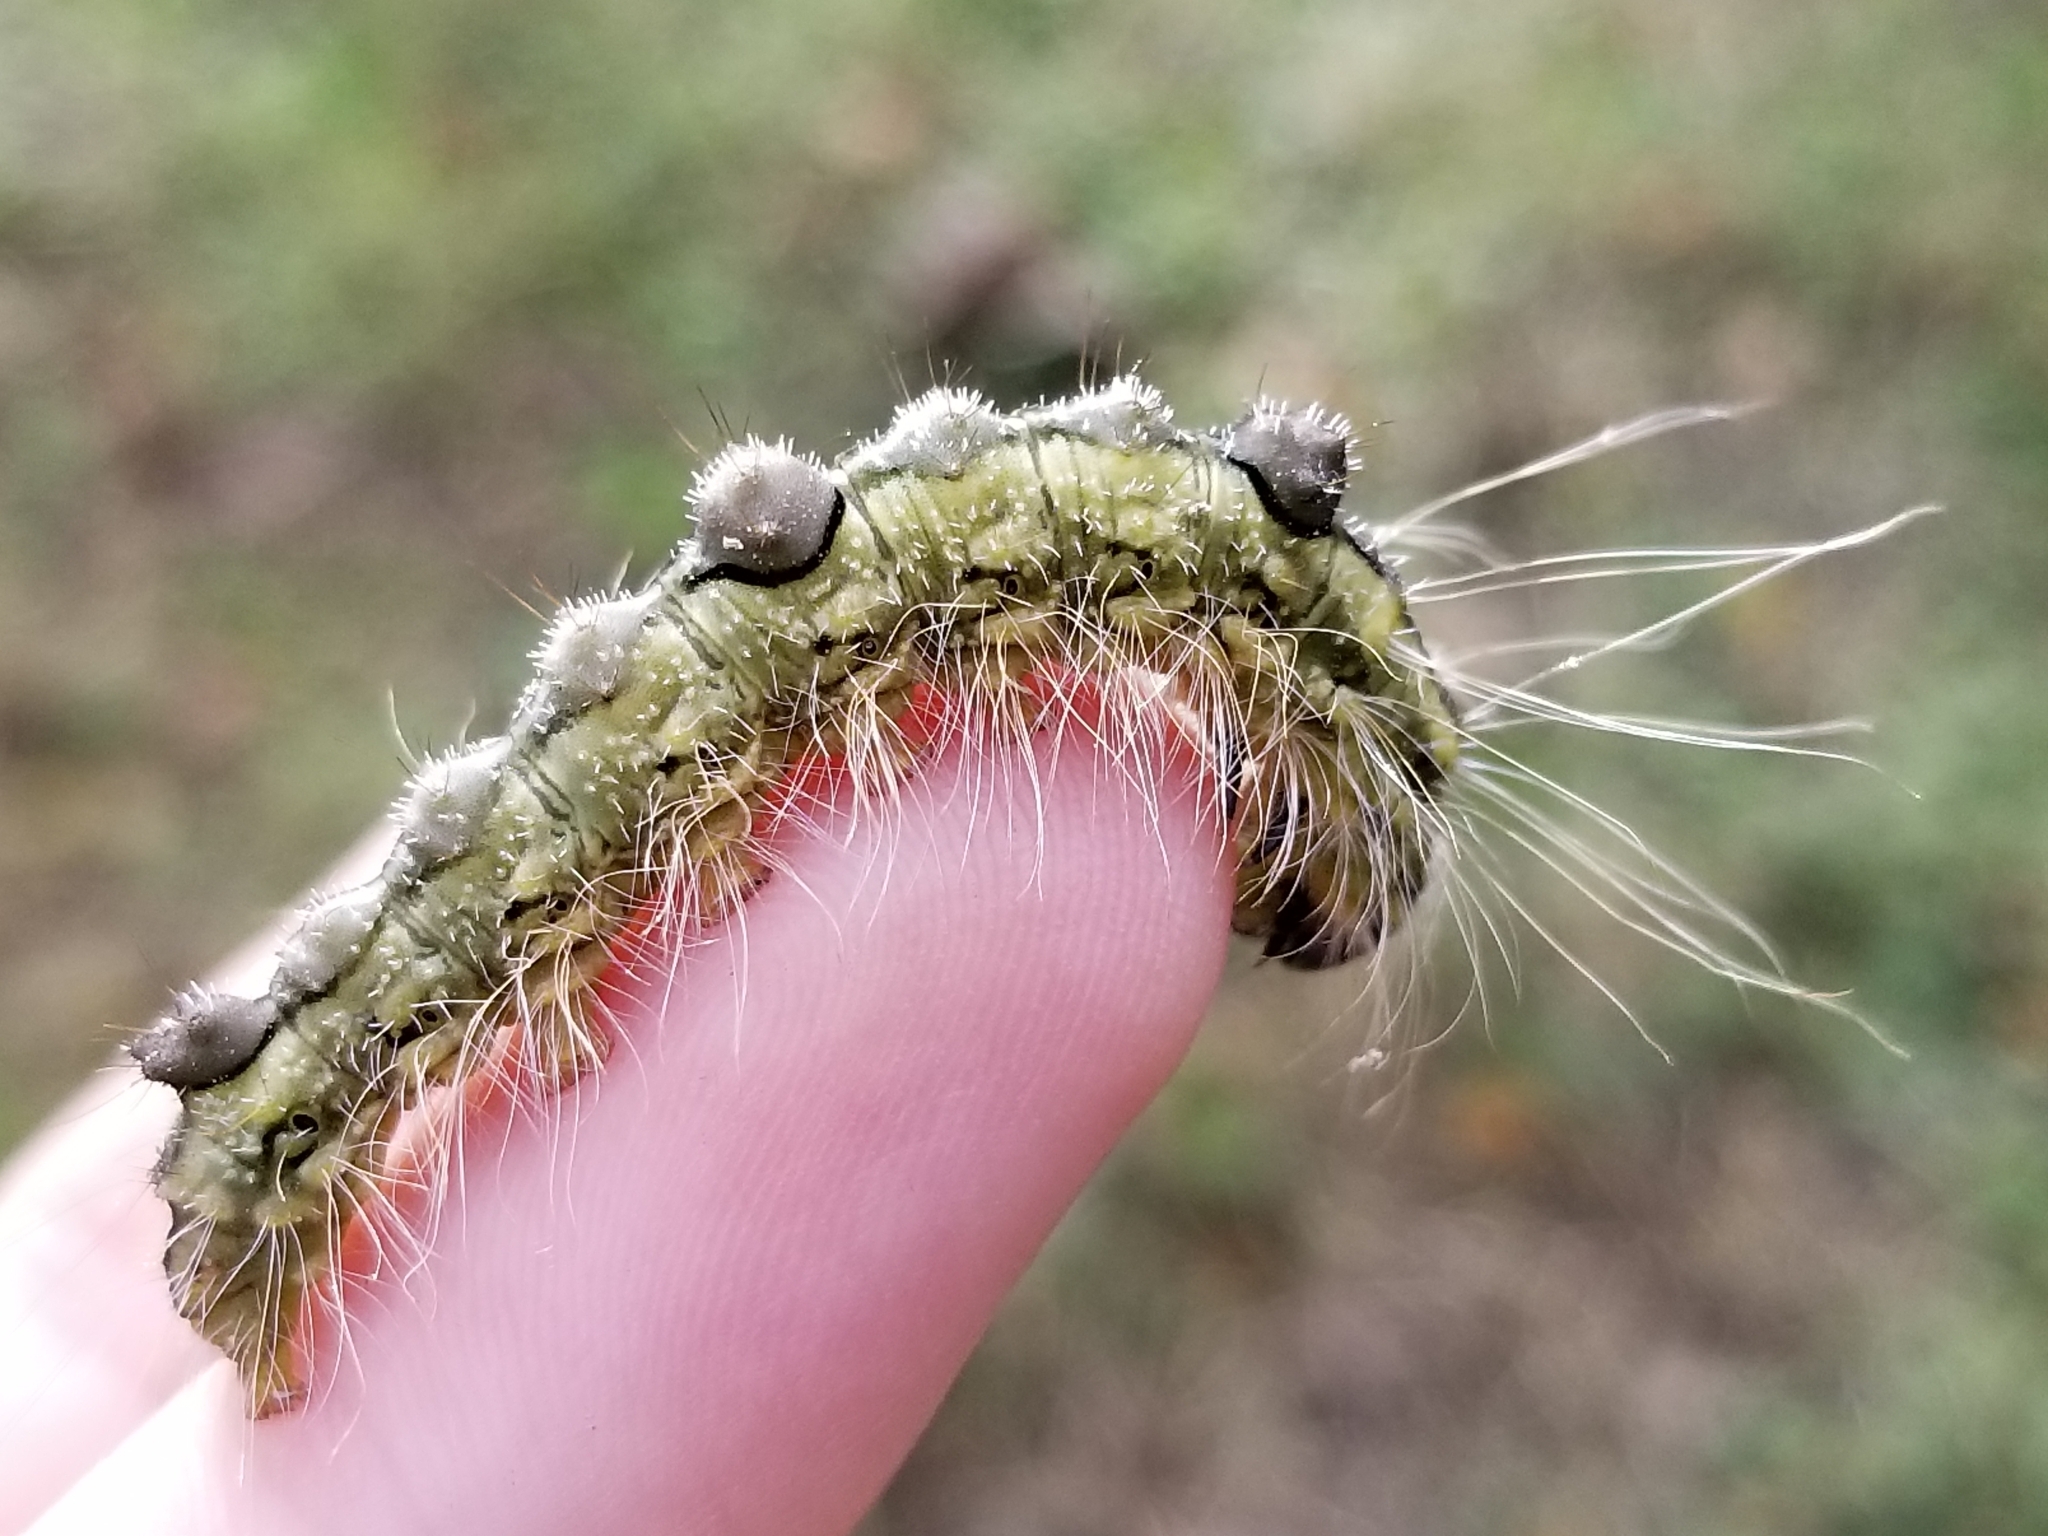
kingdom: Animalia
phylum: Arthropoda
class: Insecta
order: Lepidoptera
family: Noctuidae
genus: Acronicta
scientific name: Acronicta morula
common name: Ochre dagger
